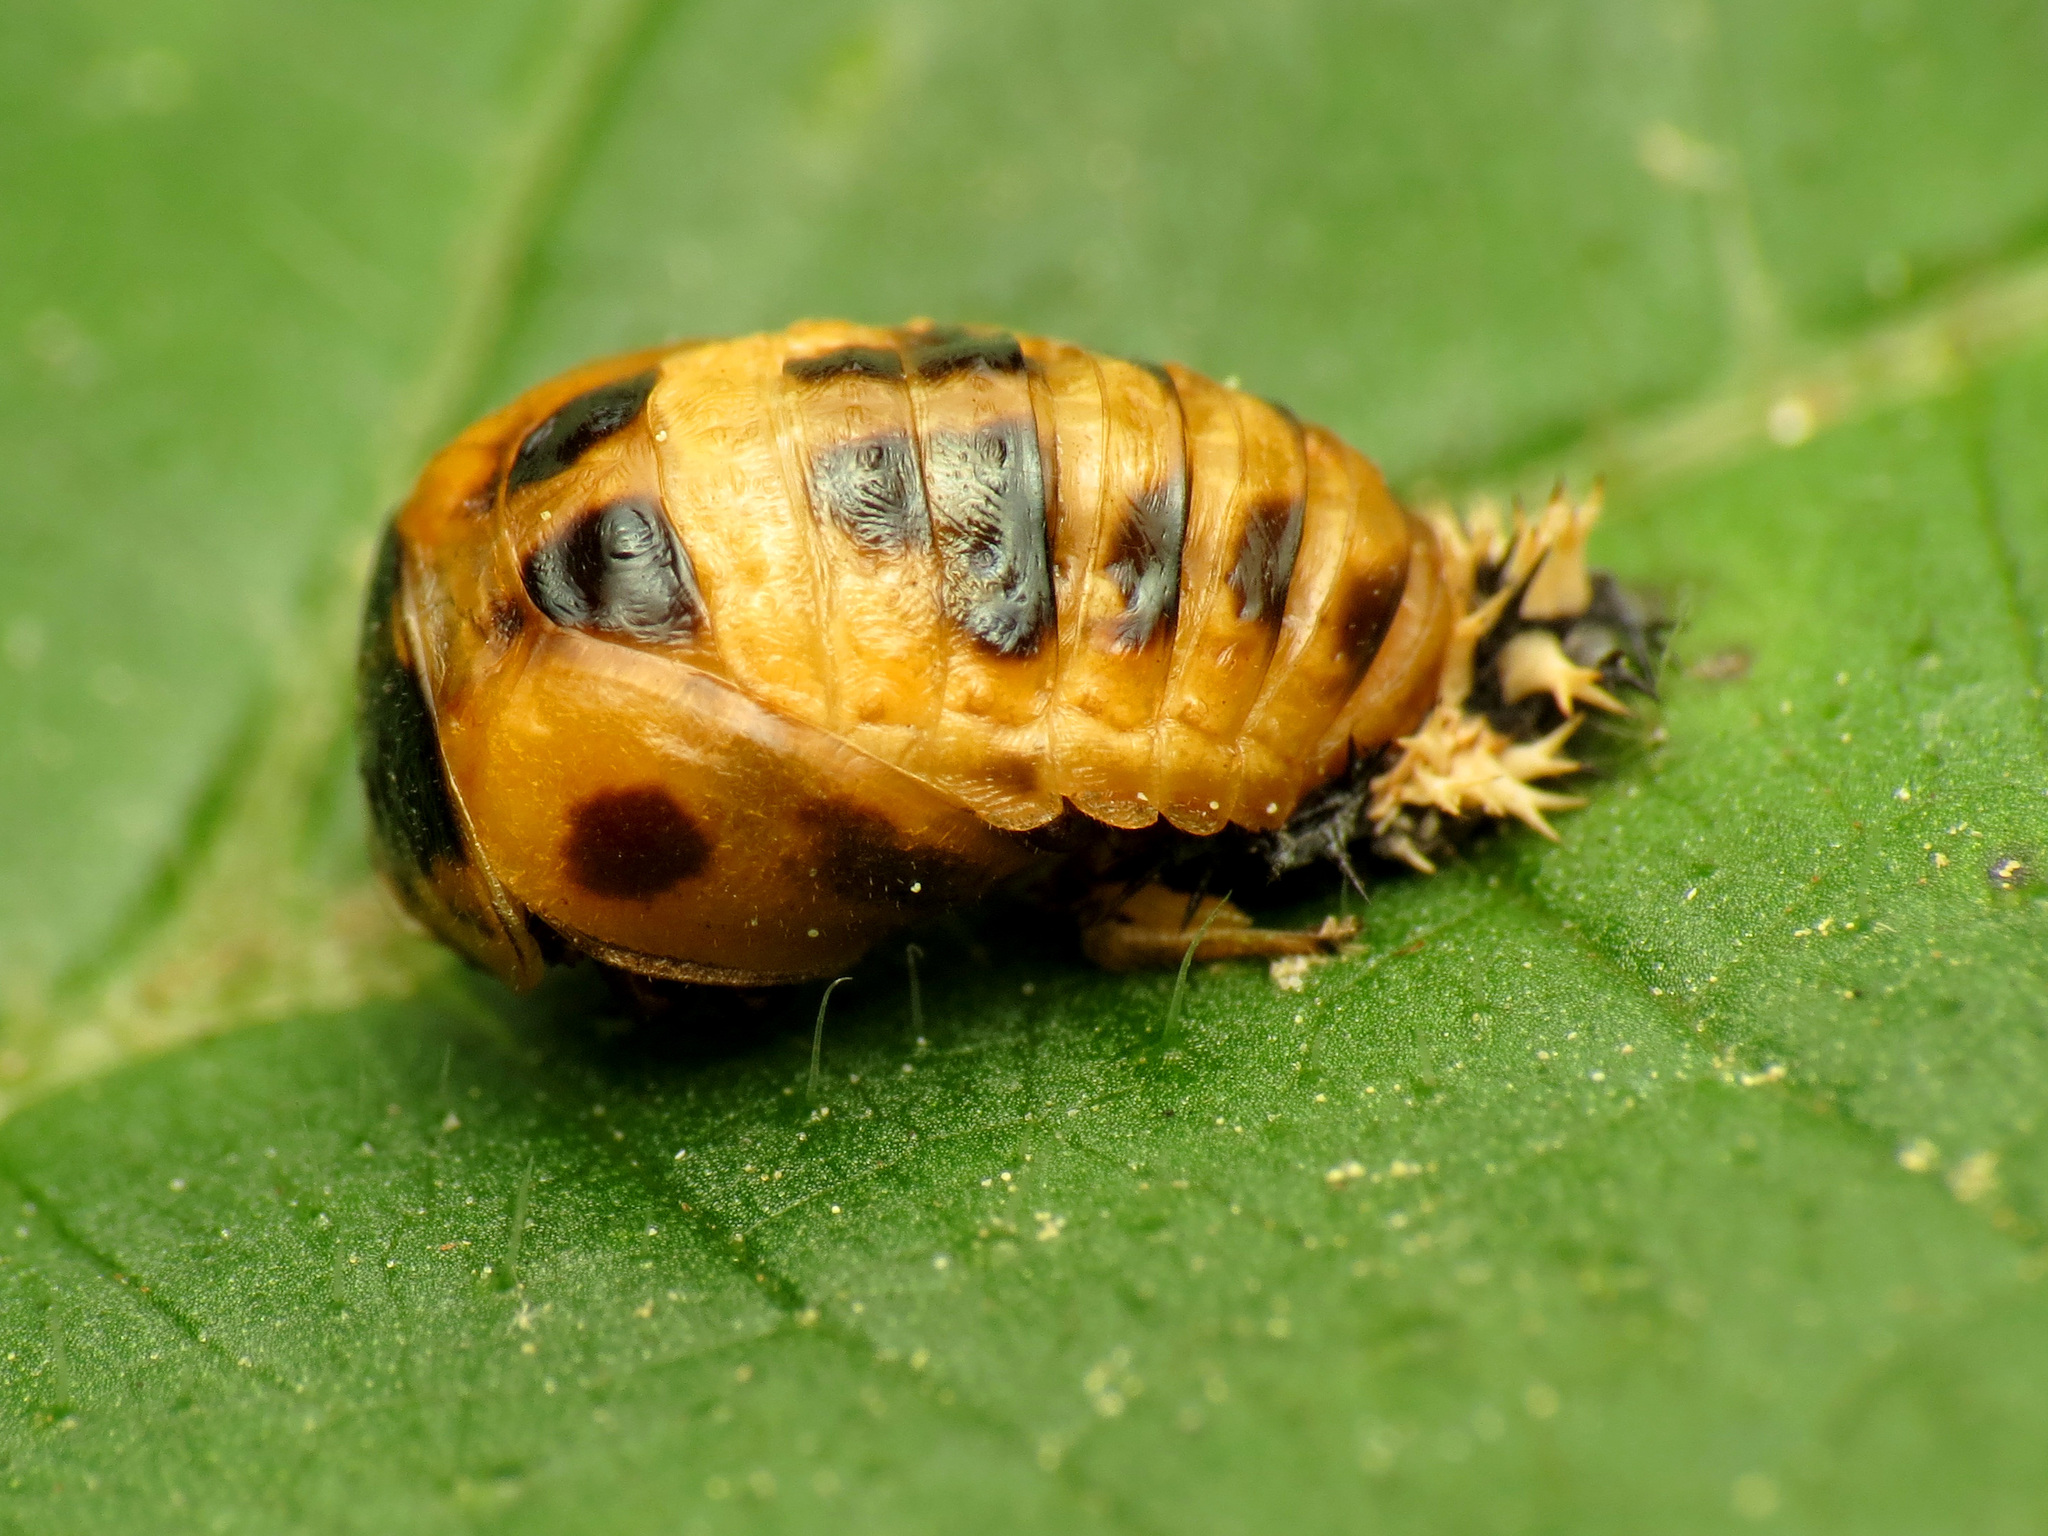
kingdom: Animalia
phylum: Arthropoda
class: Insecta
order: Coleoptera
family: Coccinellidae
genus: Harmonia
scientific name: Harmonia axyridis
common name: Harlequin ladybird
